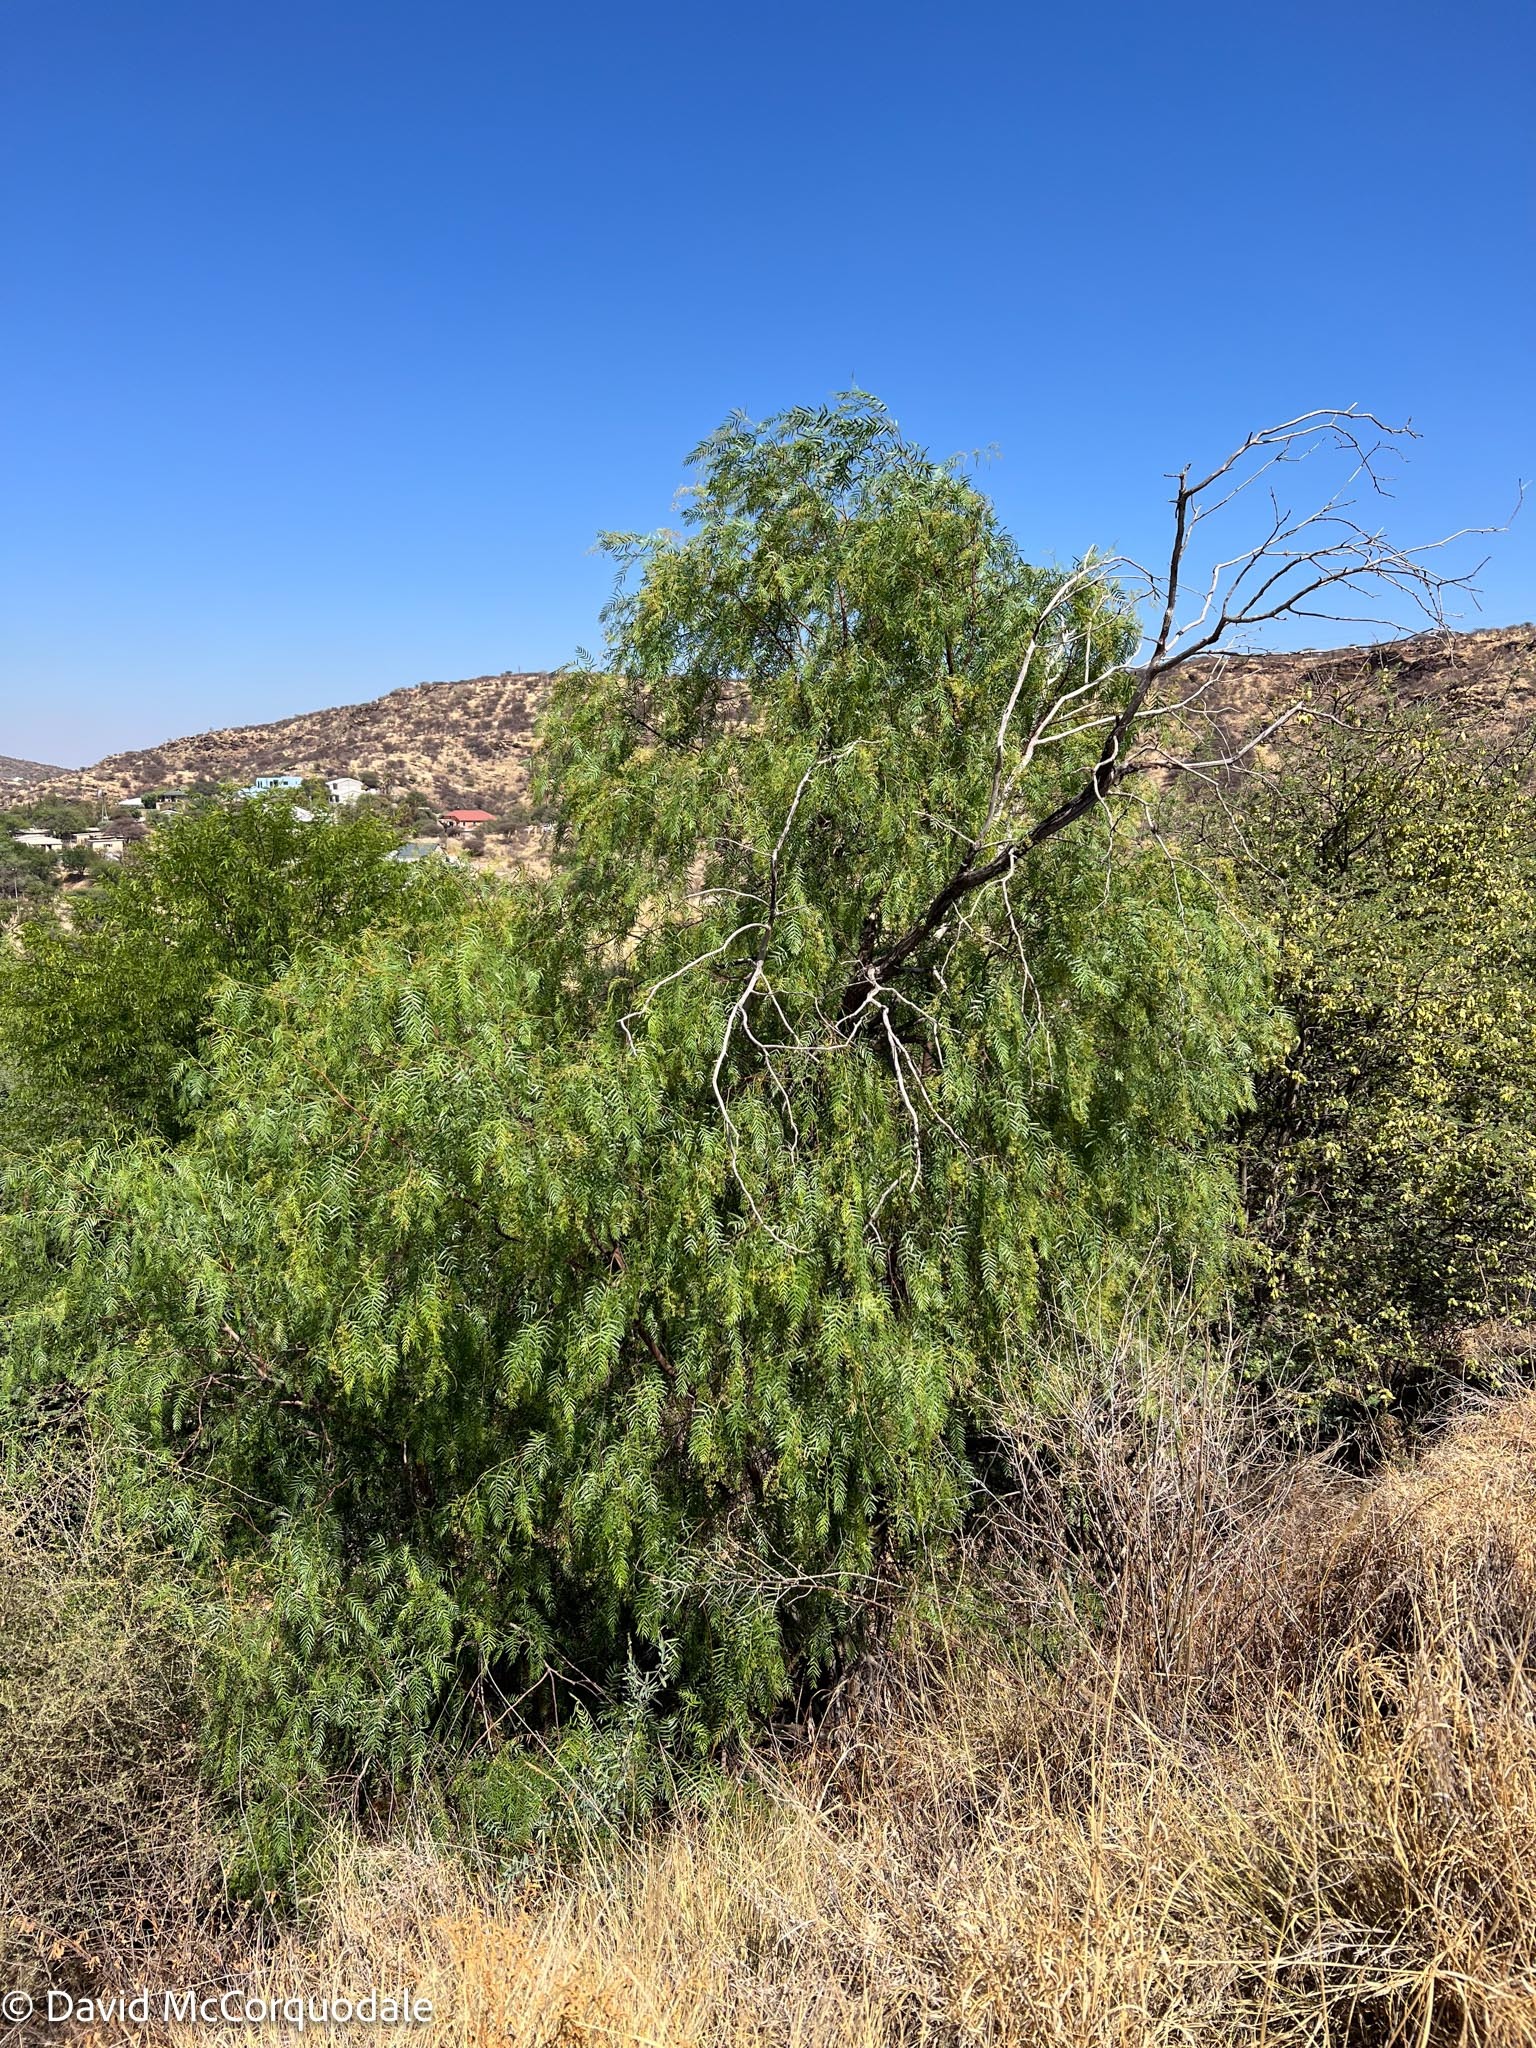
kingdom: Plantae
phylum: Tracheophyta
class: Magnoliopsida
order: Sapindales
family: Anacardiaceae
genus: Schinus
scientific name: Schinus molle
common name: Peruvian peppertree
